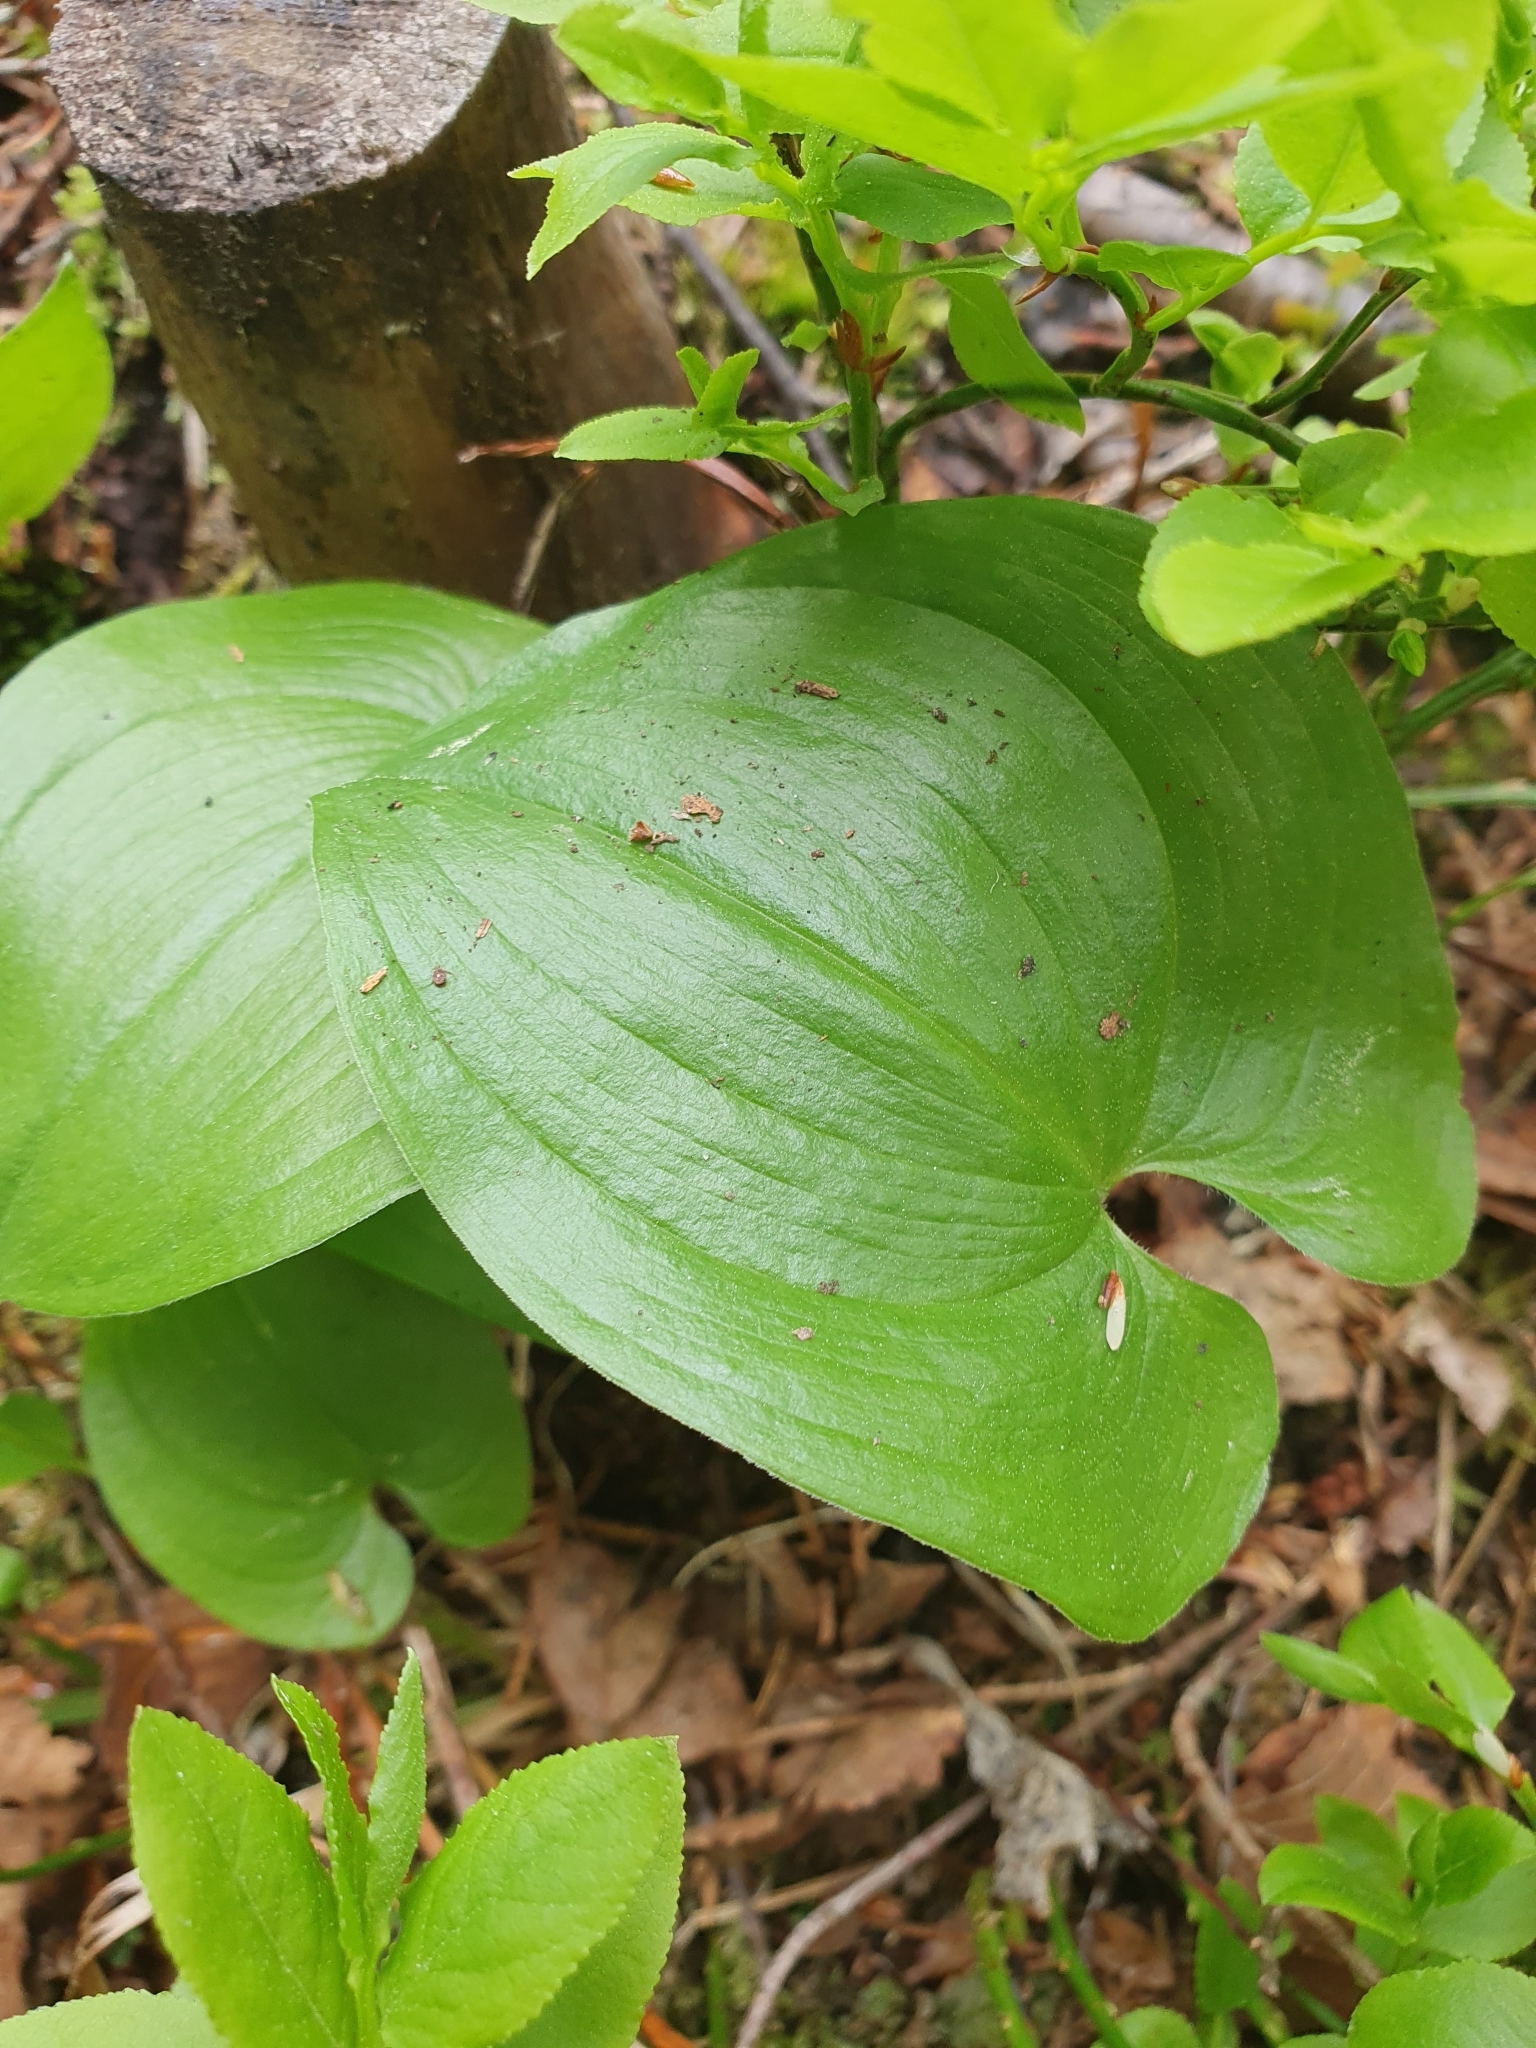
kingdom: Plantae
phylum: Tracheophyta
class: Liliopsida
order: Asparagales
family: Asparagaceae
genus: Maianthemum
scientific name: Maianthemum bifolium
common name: May lily
